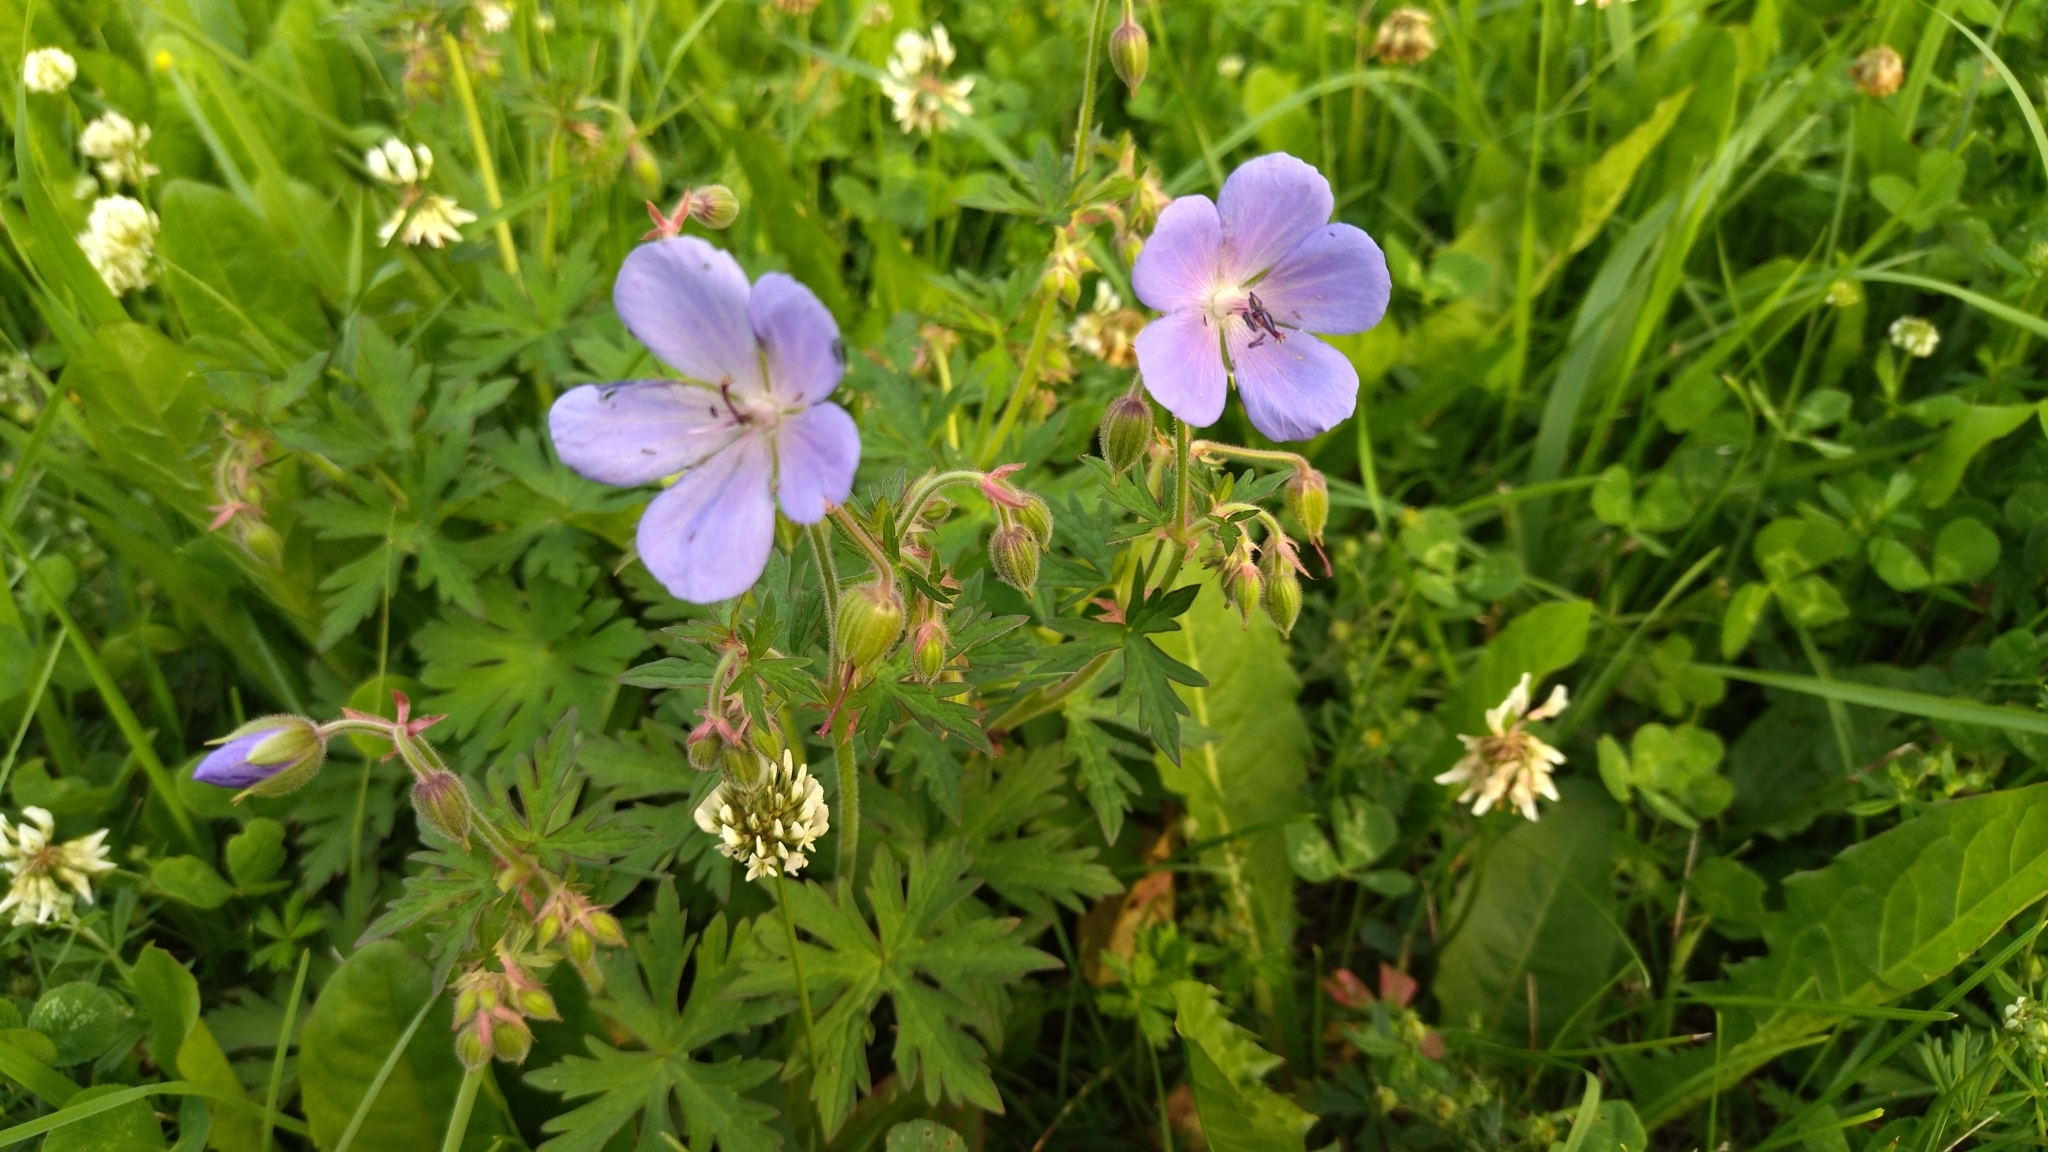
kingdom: Plantae
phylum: Tracheophyta
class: Magnoliopsida
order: Geraniales
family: Geraniaceae
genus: Geranium
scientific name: Geranium pratense
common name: Meadow crane's-bill
